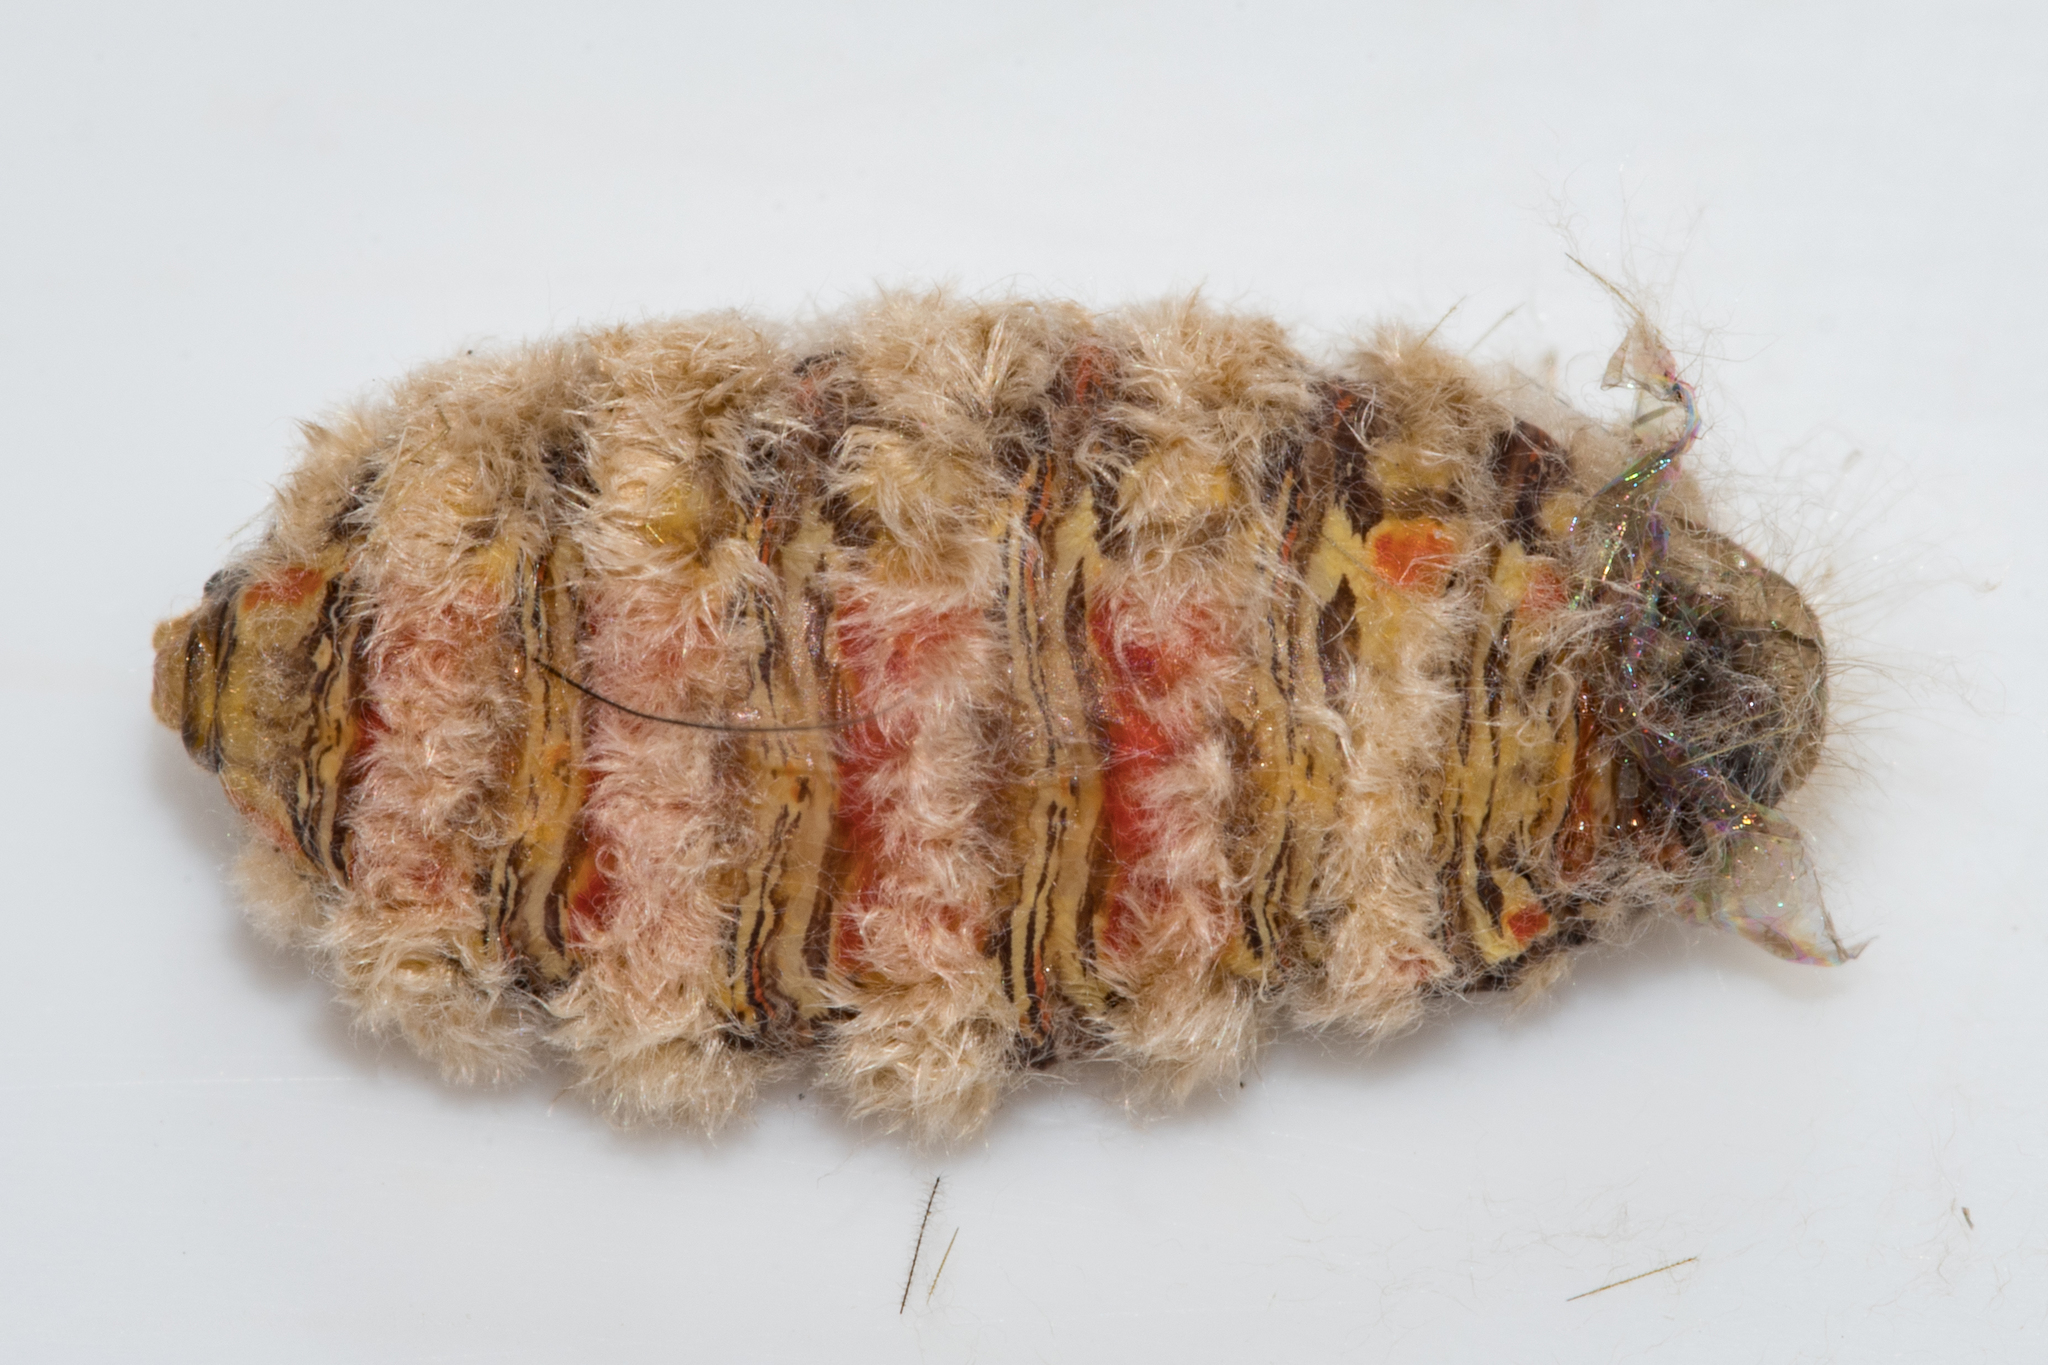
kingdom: Animalia
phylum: Arthropoda
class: Insecta
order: Lepidoptera
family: Erebidae
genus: Bracharoa
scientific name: Bracharoa dregei
